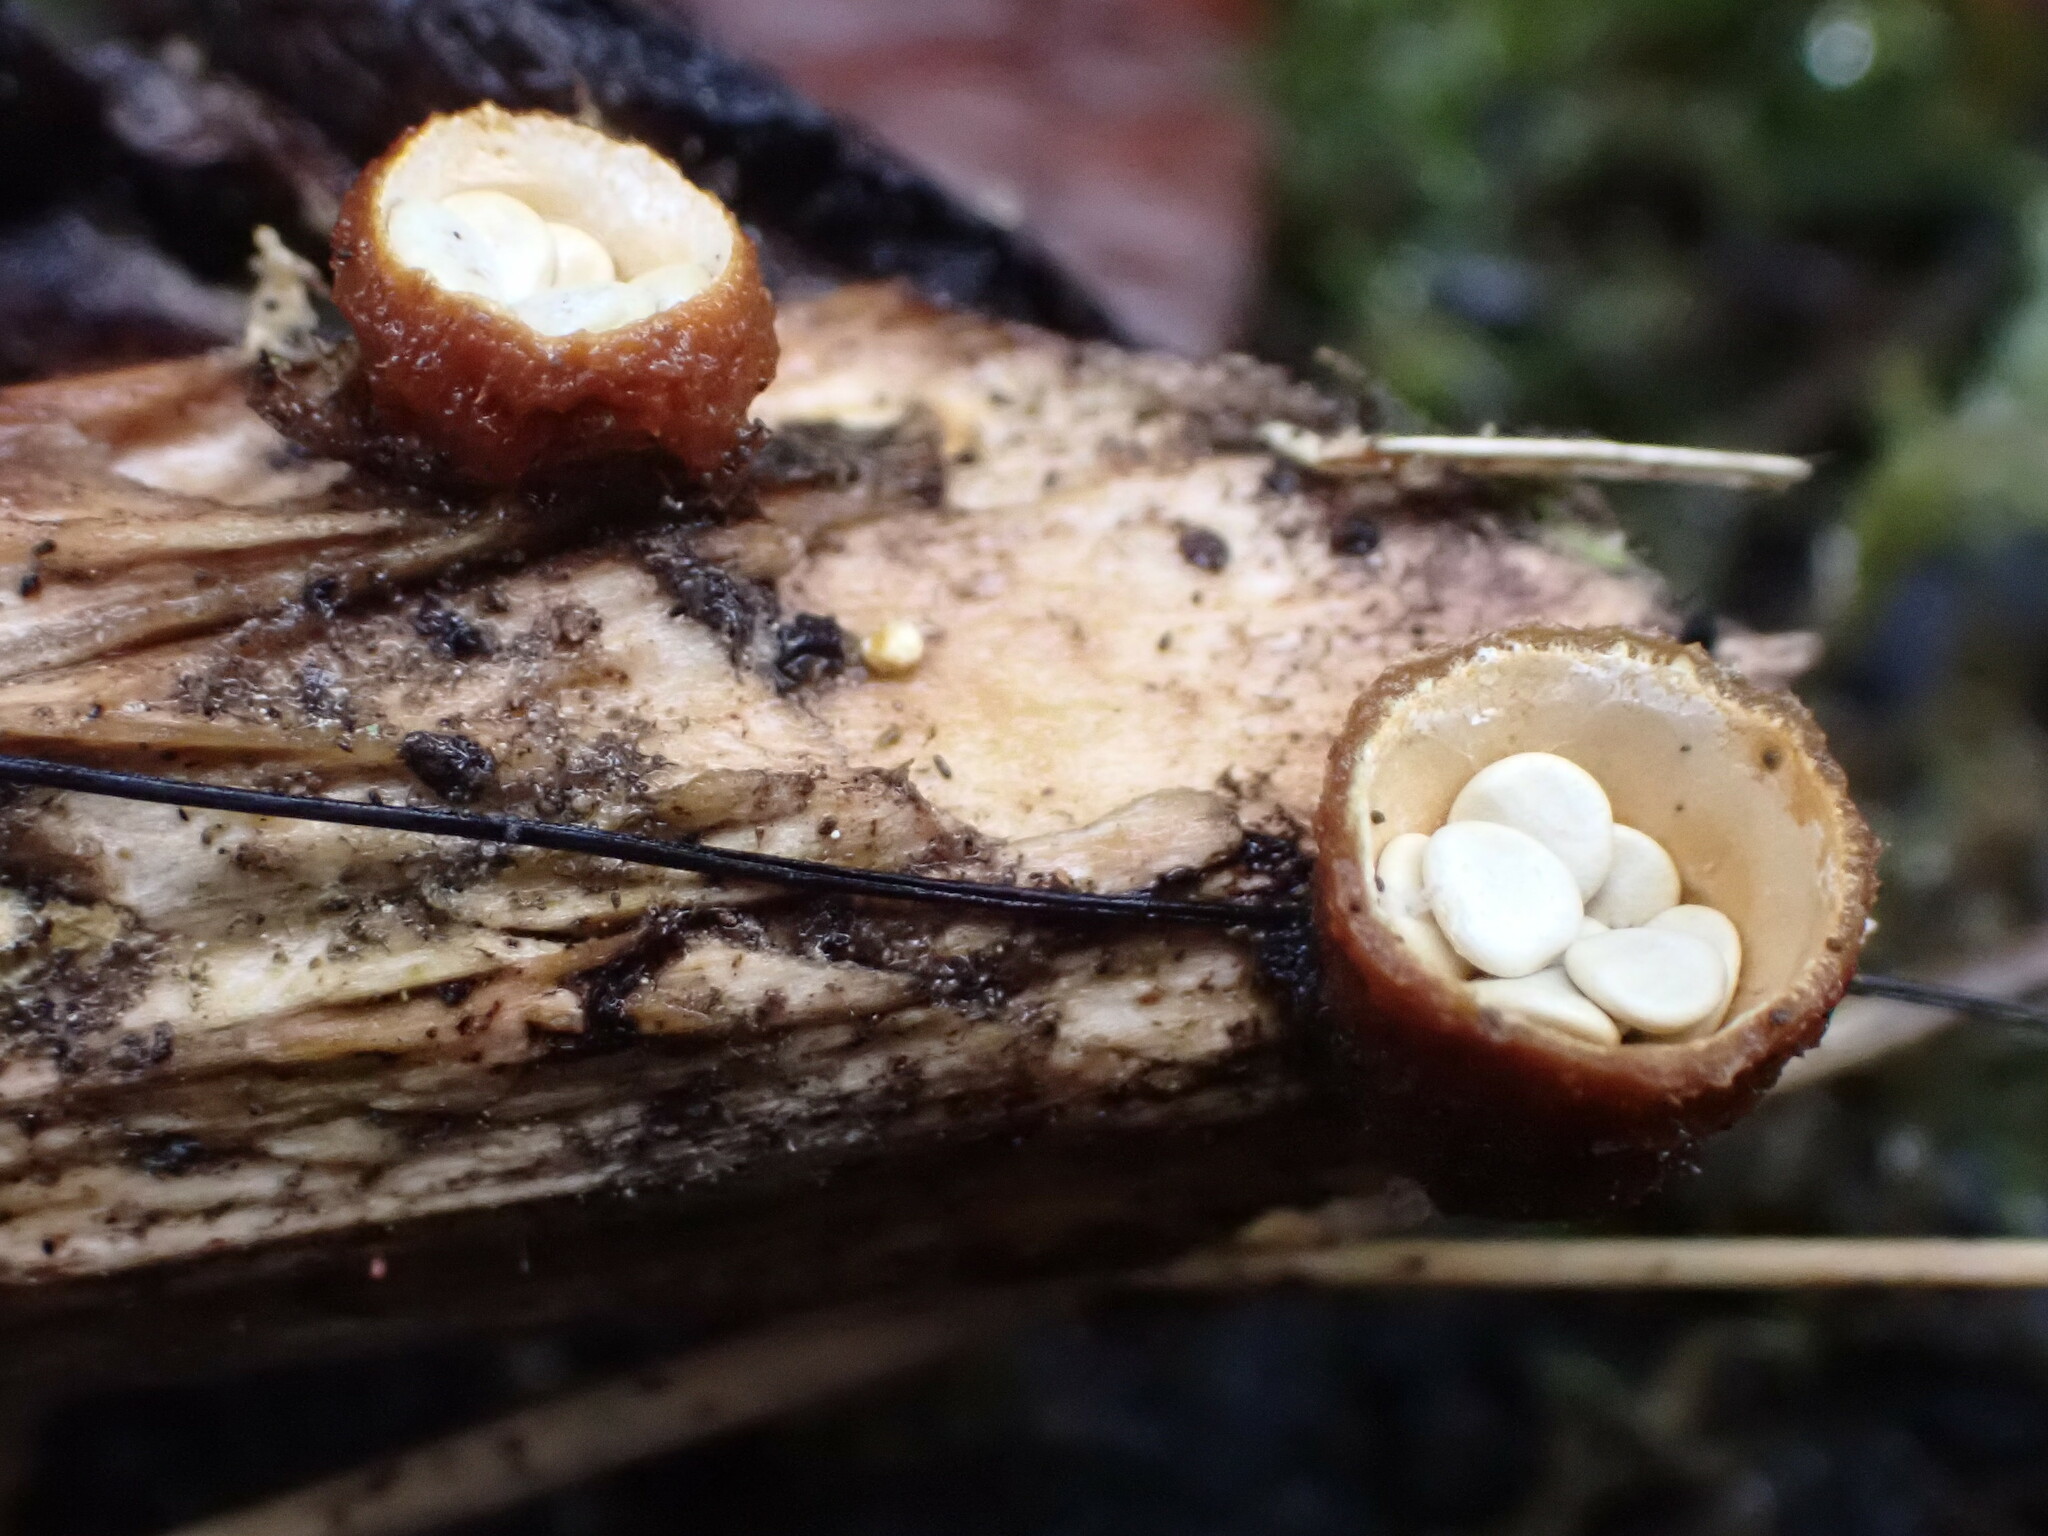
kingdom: Fungi
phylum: Basidiomycota
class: Agaricomycetes
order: Agaricales
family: Nidulariaceae
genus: Crucibulum
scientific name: Crucibulum laeve
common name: Common bird's nest
